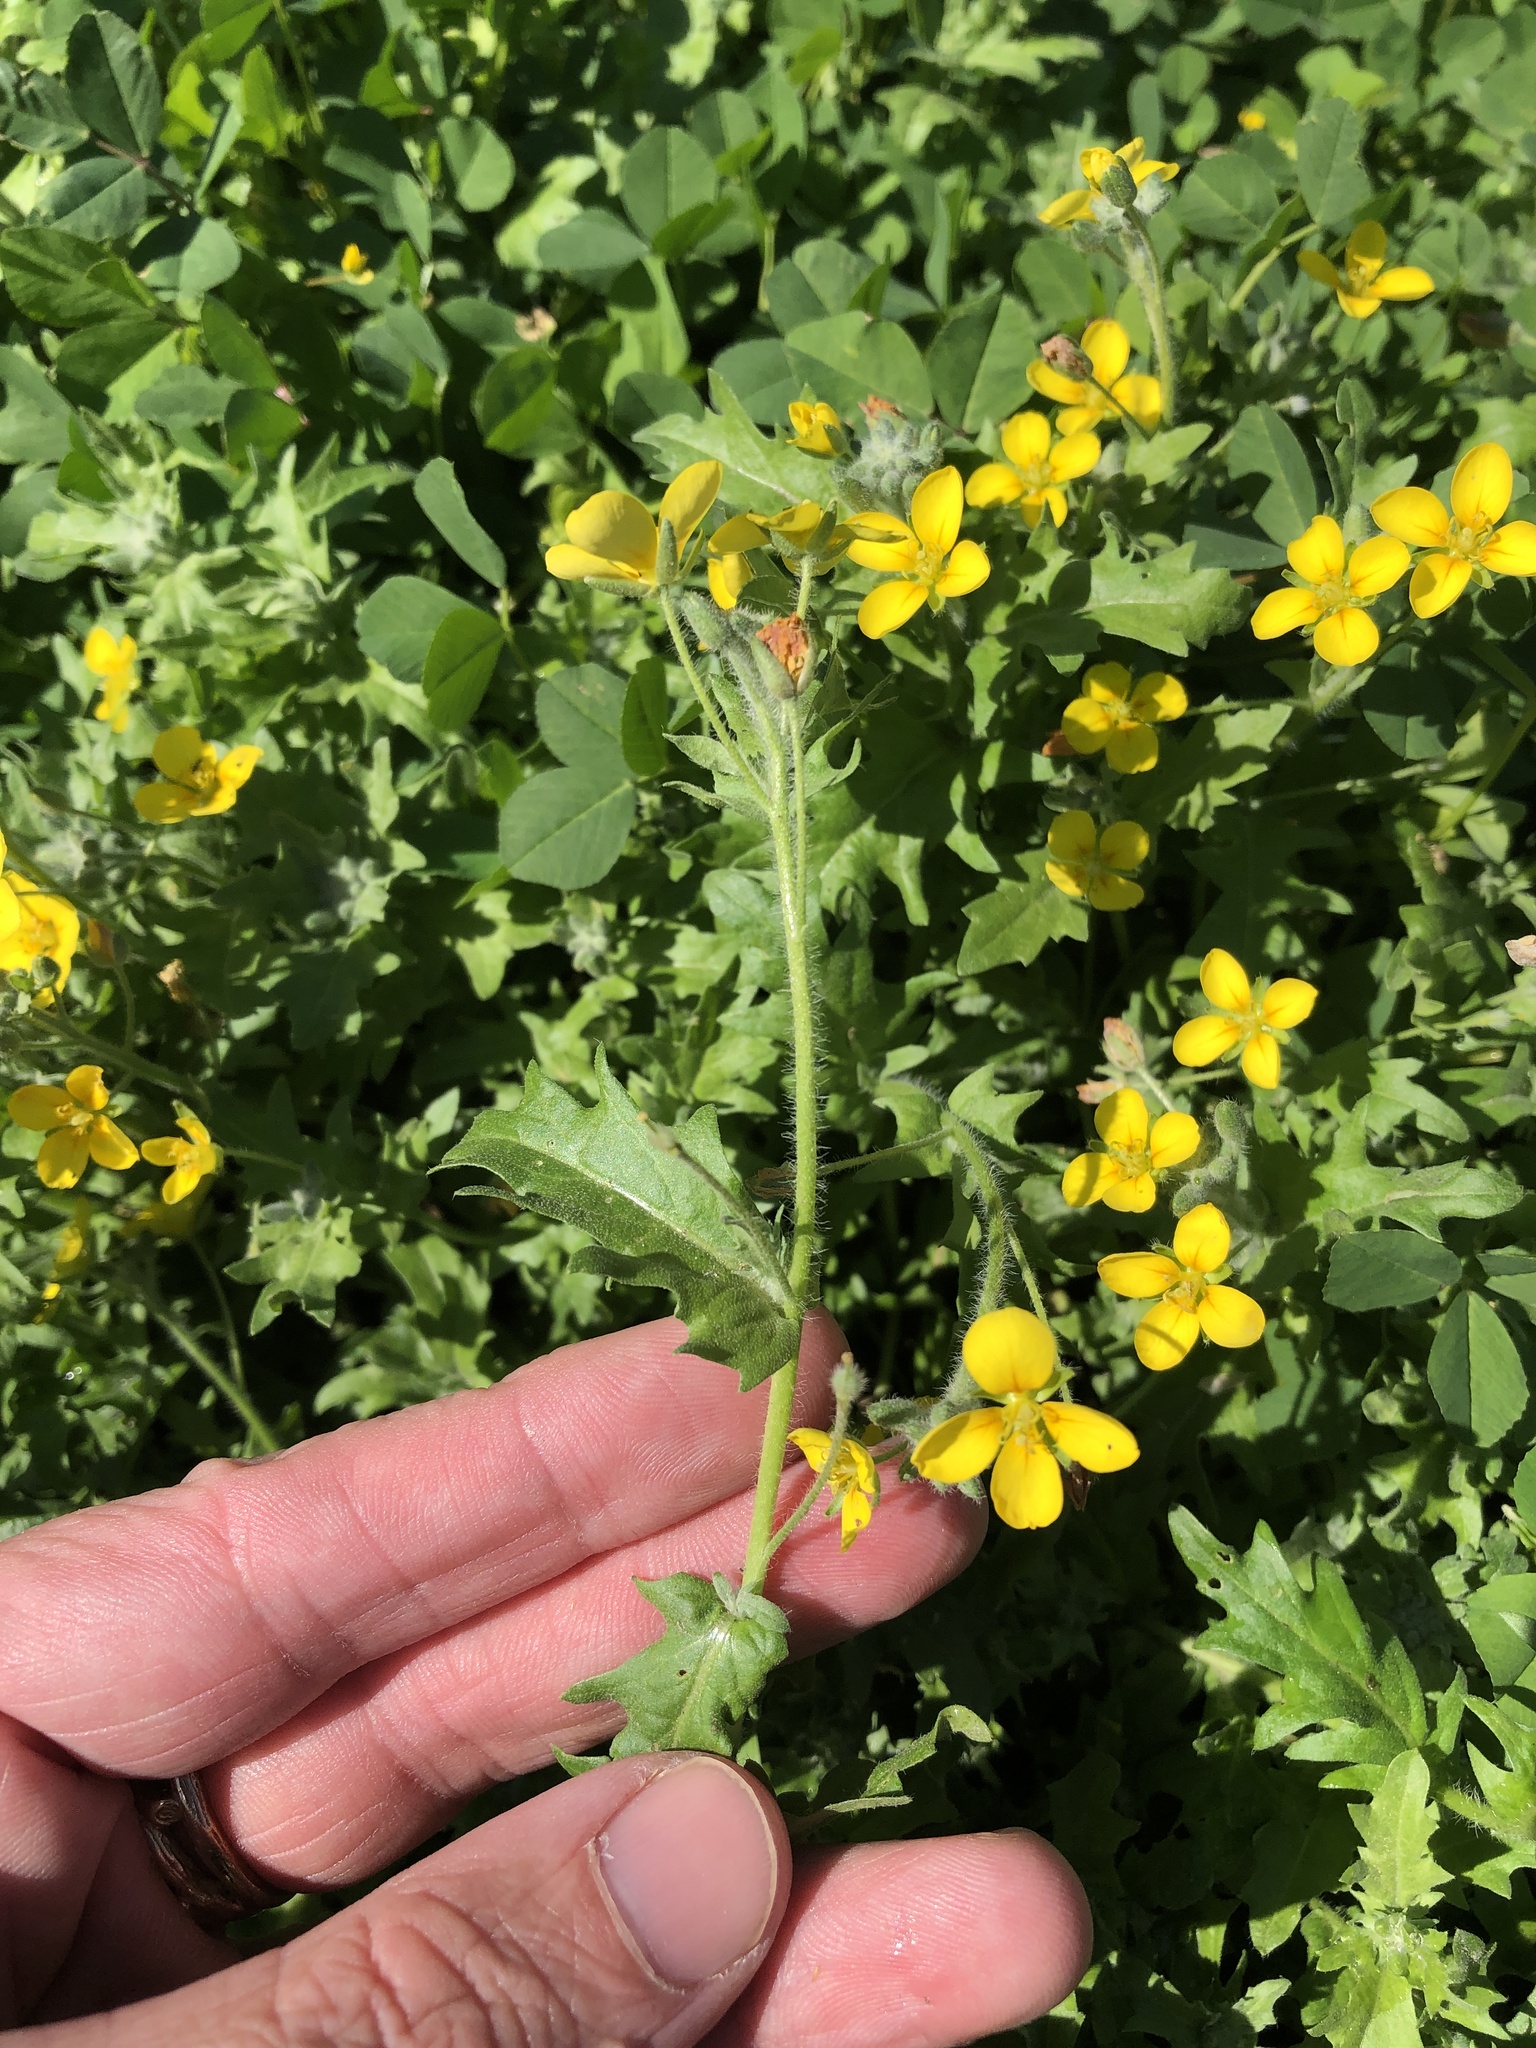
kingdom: Plantae
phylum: Tracheophyta
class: Magnoliopsida
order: Brassicales
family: Brassicaceae
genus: Paysonia
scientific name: Paysonia lasiocarpa
